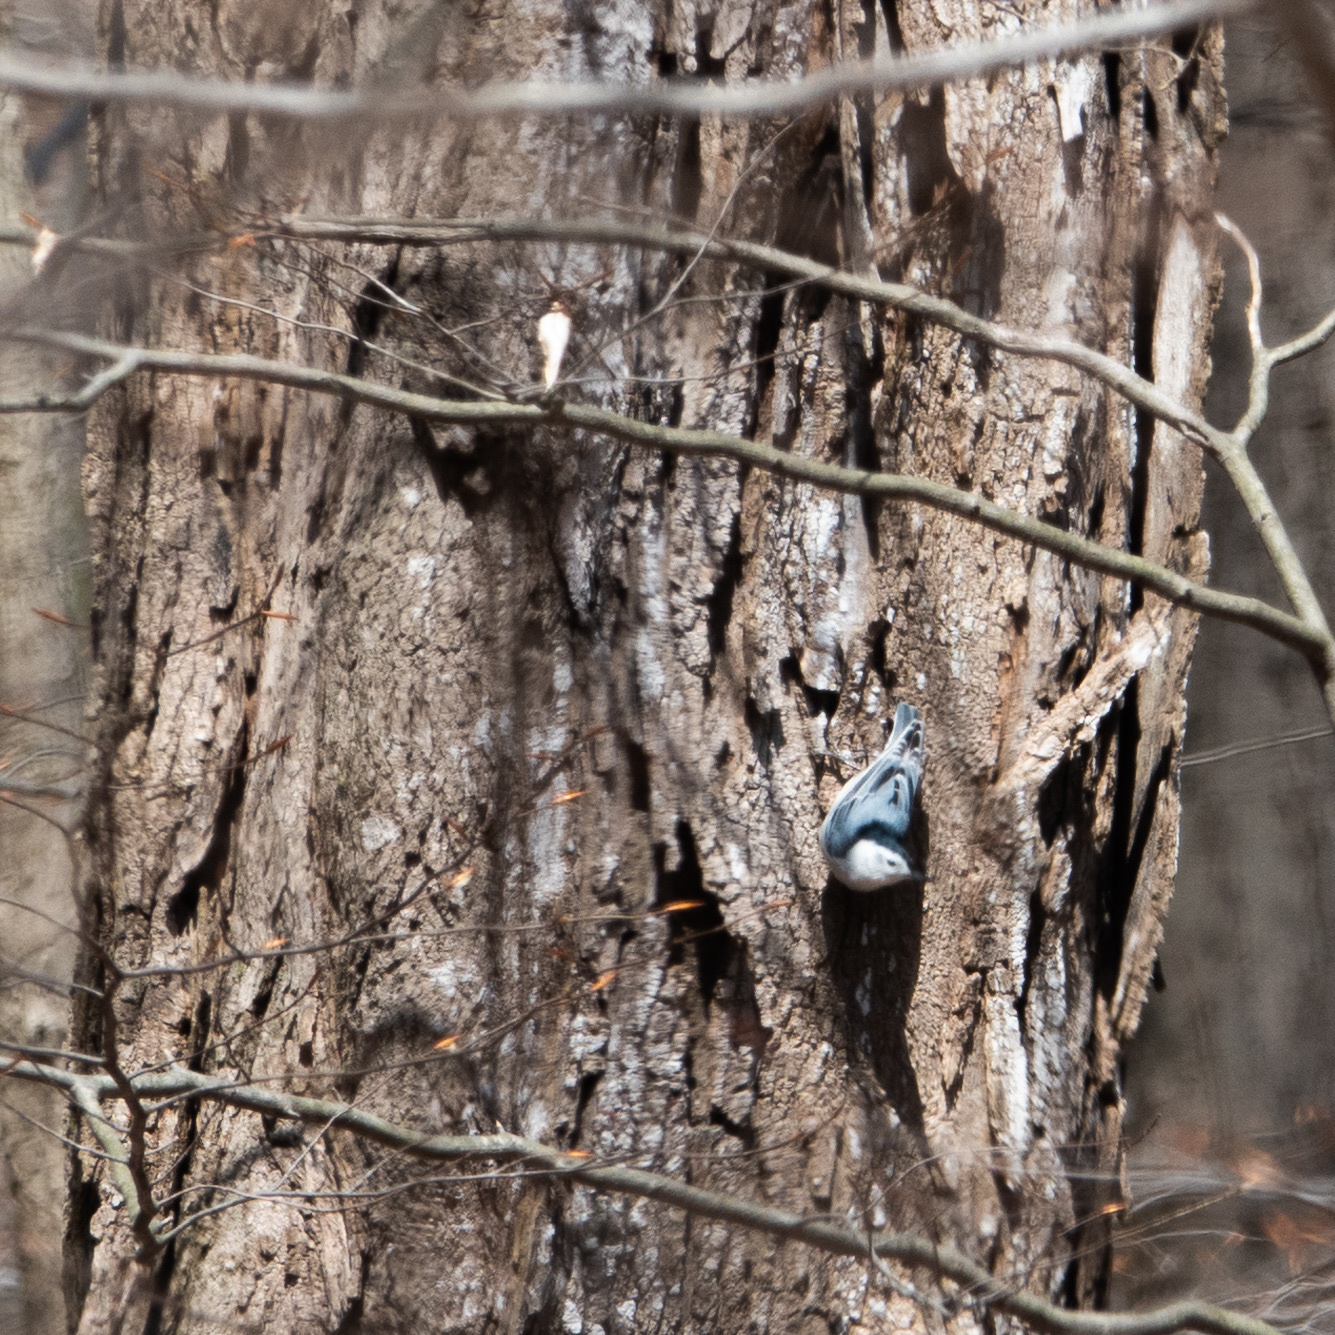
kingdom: Animalia
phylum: Chordata
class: Aves
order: Passeriformes
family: Sittidae
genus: Sitta
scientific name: Sitta carolinensis
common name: White-breasted nuthatch
